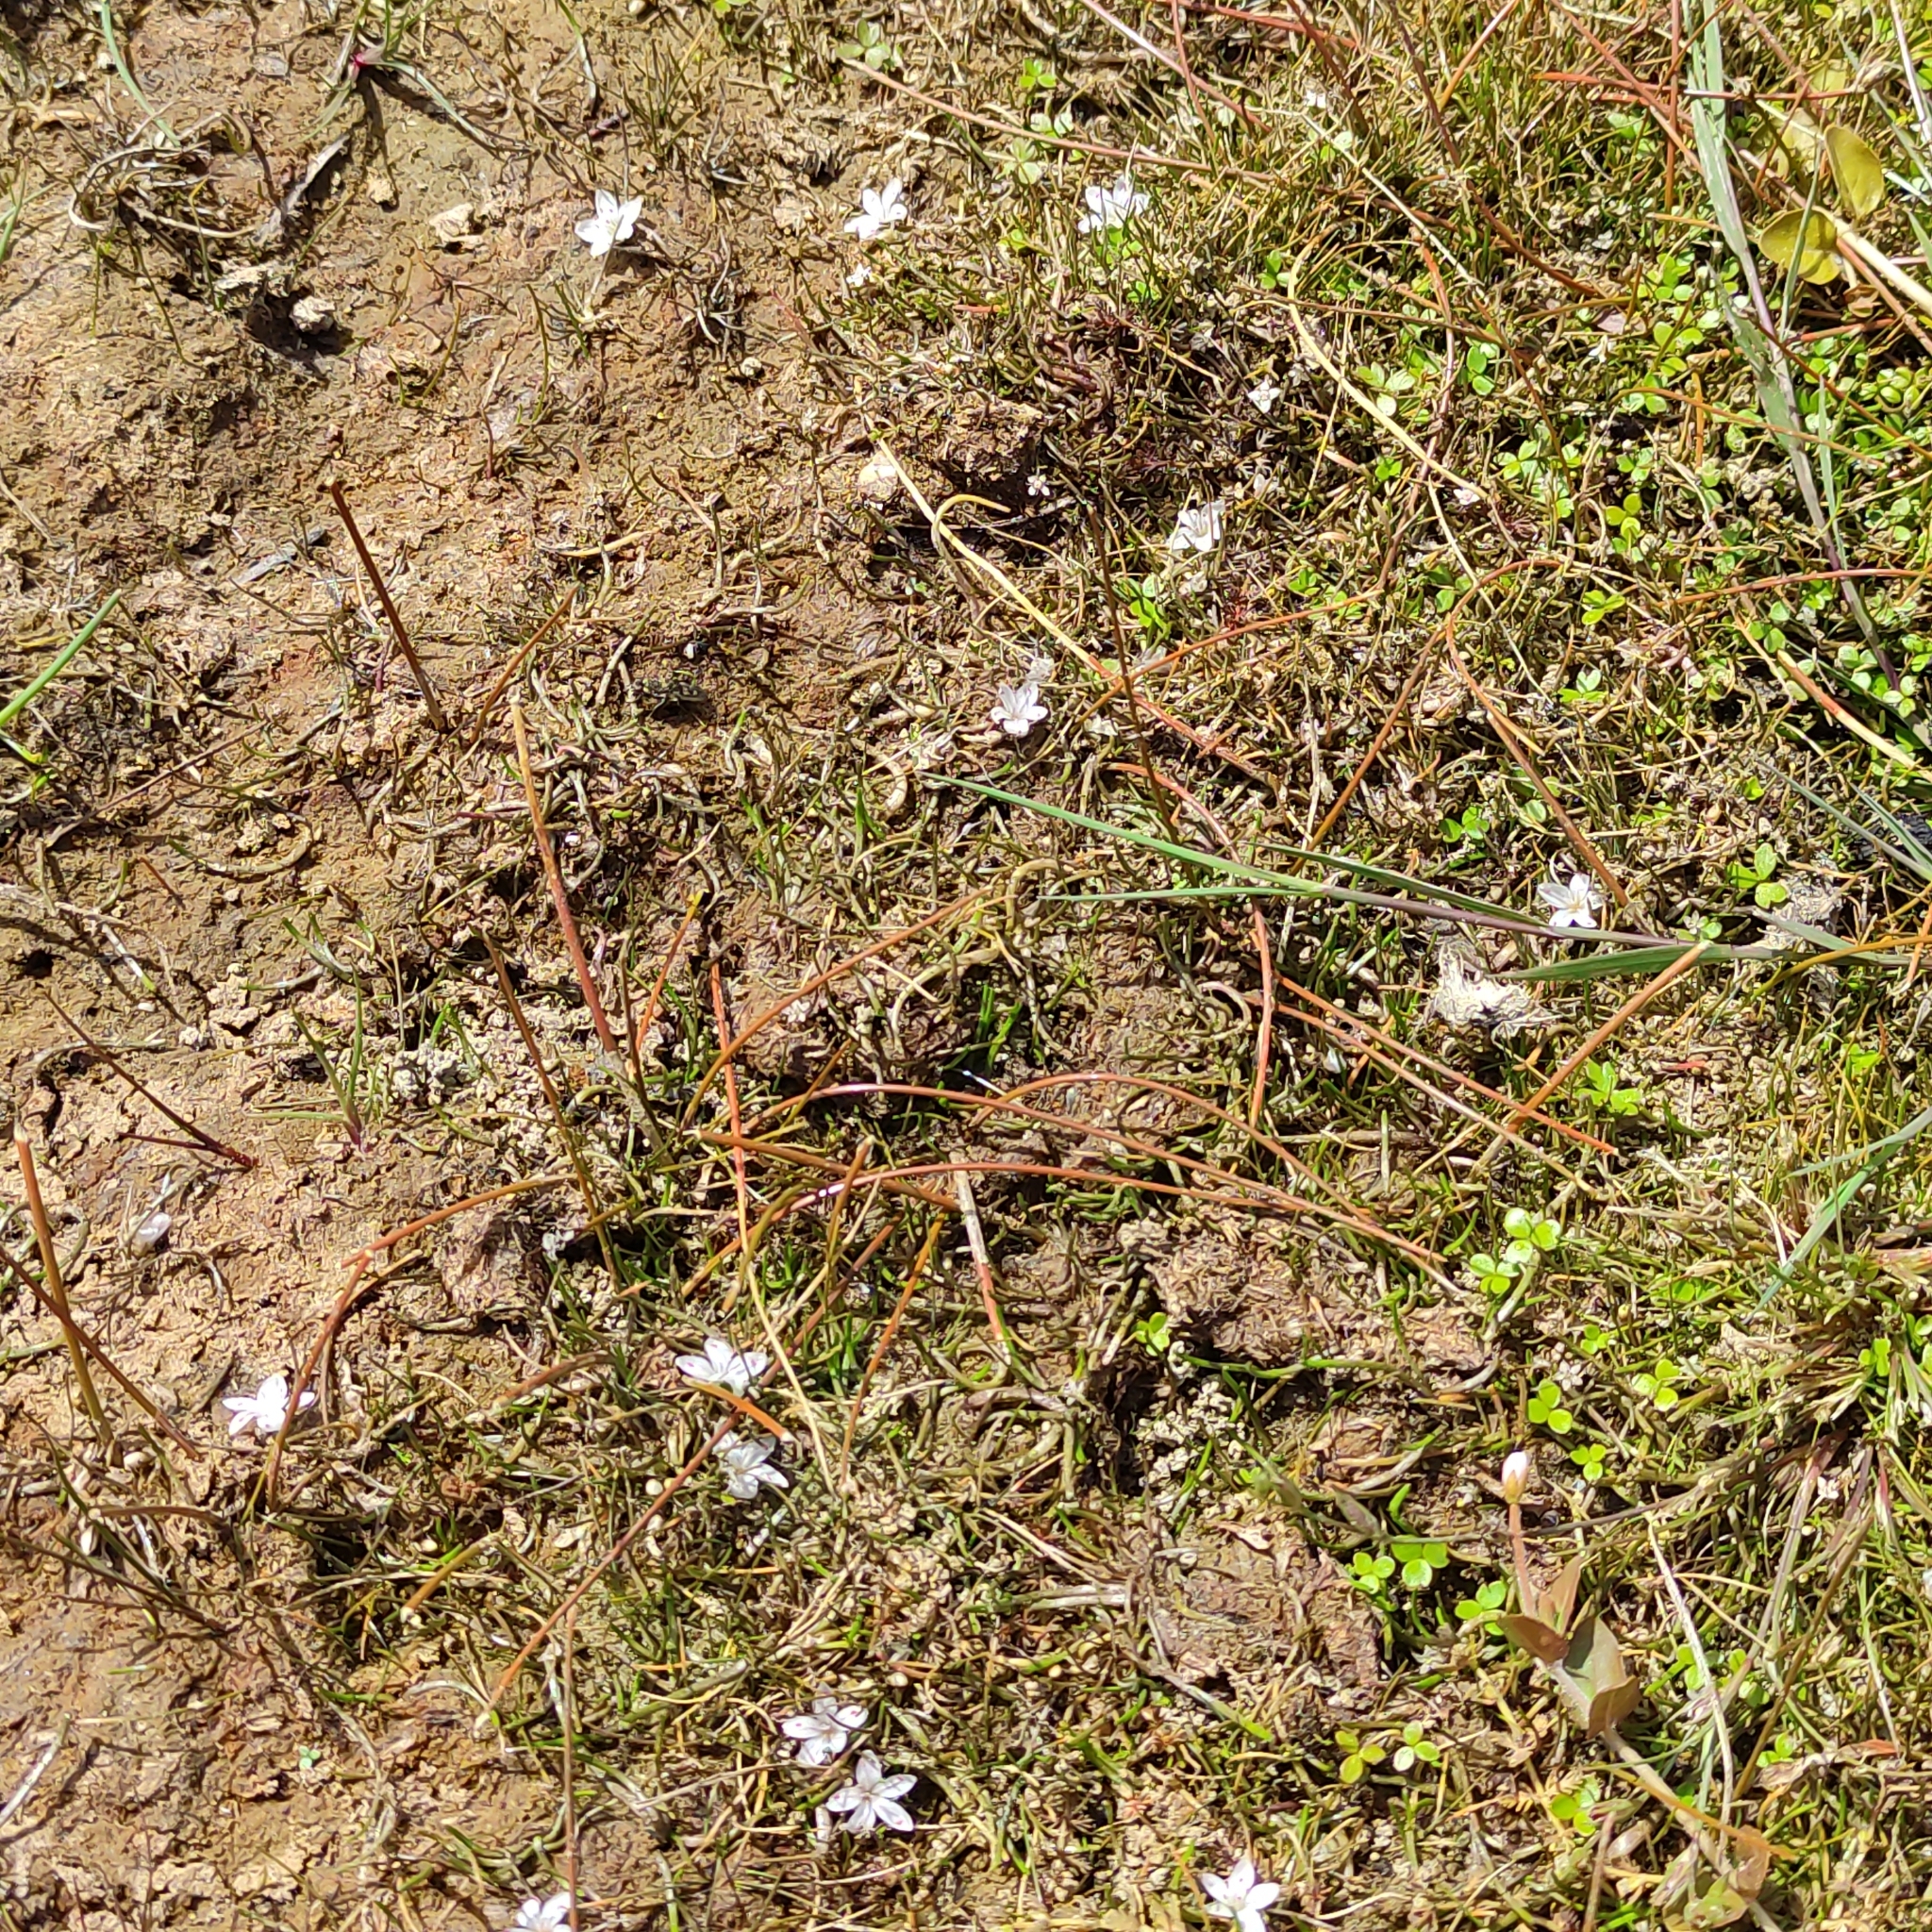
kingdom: Plantae
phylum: Tracheophyta
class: Magnoliopsida
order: Caryophyllales
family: Montiaceae
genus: Montia
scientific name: Montia angustifolia
